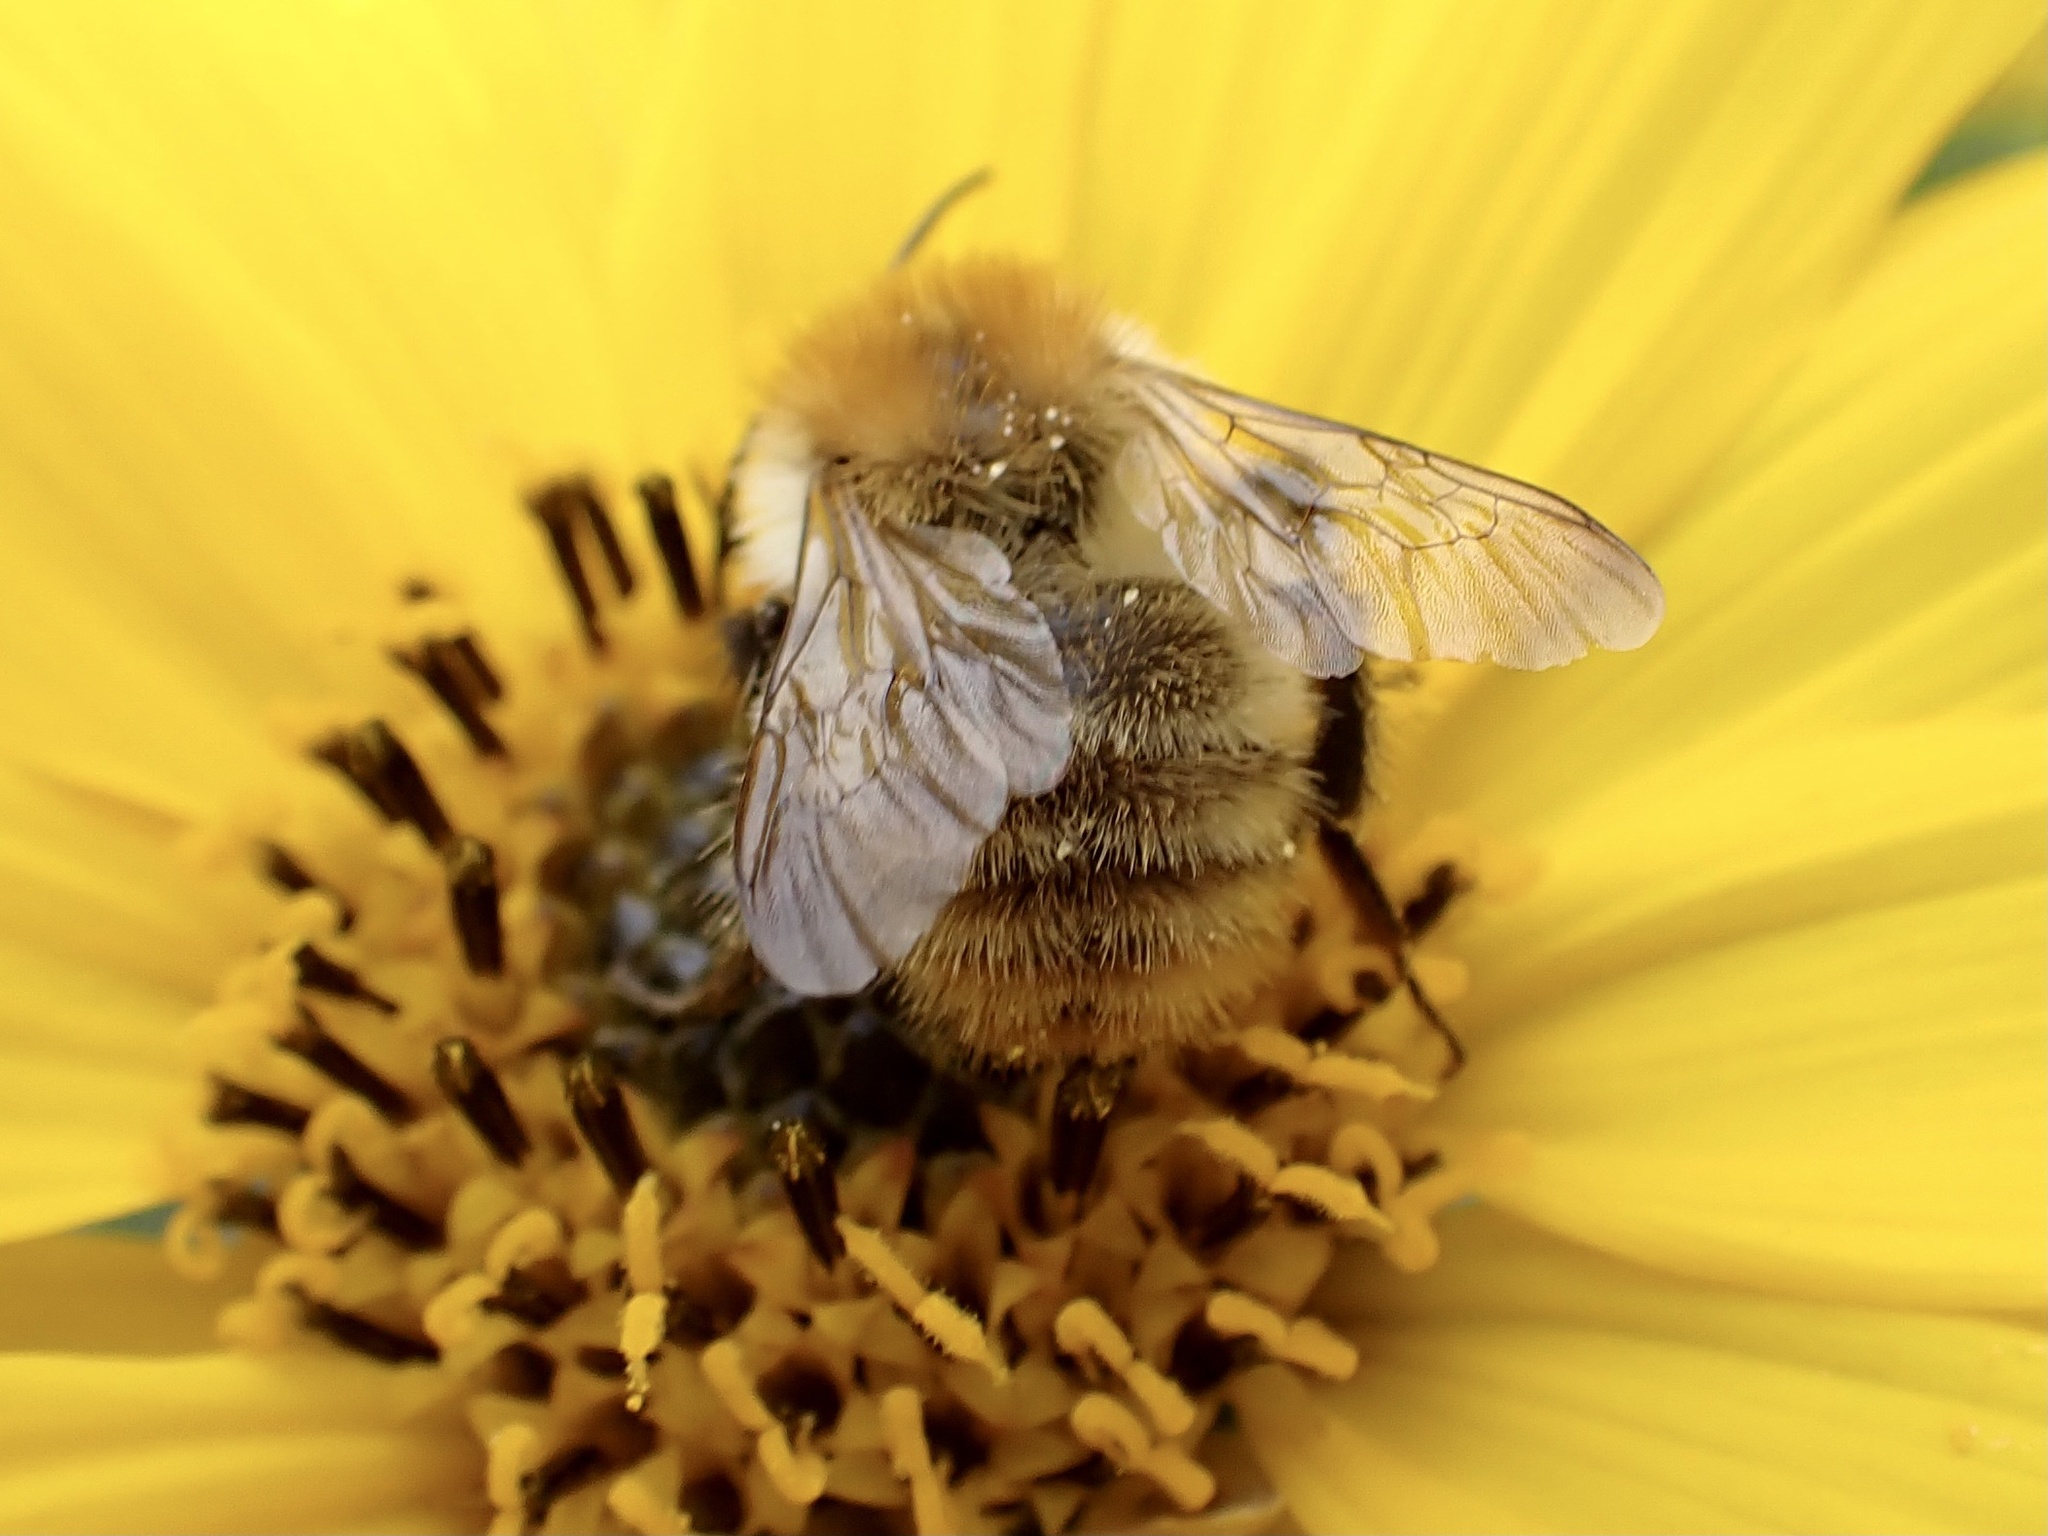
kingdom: Animalia
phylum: Arthropoda
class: Insecta
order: Hymenoptera
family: Apidae
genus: Bombus
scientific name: Bombus pascuorum
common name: Common carder bee
